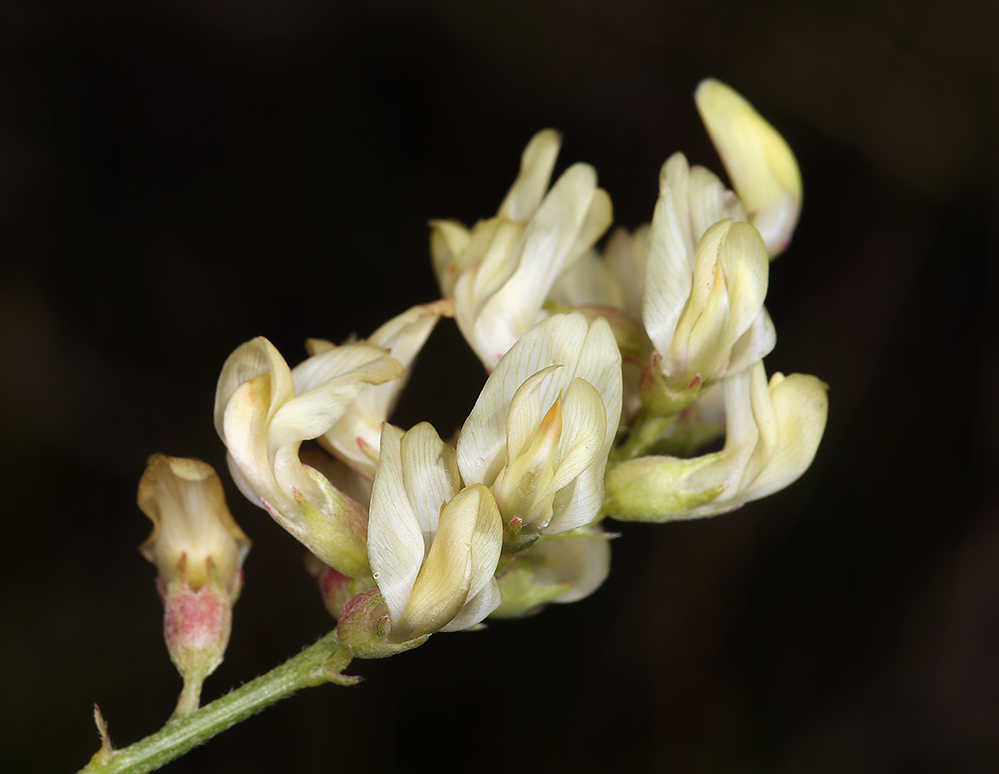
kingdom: Plantae
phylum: Tracheophyta
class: Magnoliopsida
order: Fabales
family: Fabaceae
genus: Astragalus
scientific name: Astragalus douglasii
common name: Jacumba milkvetch
